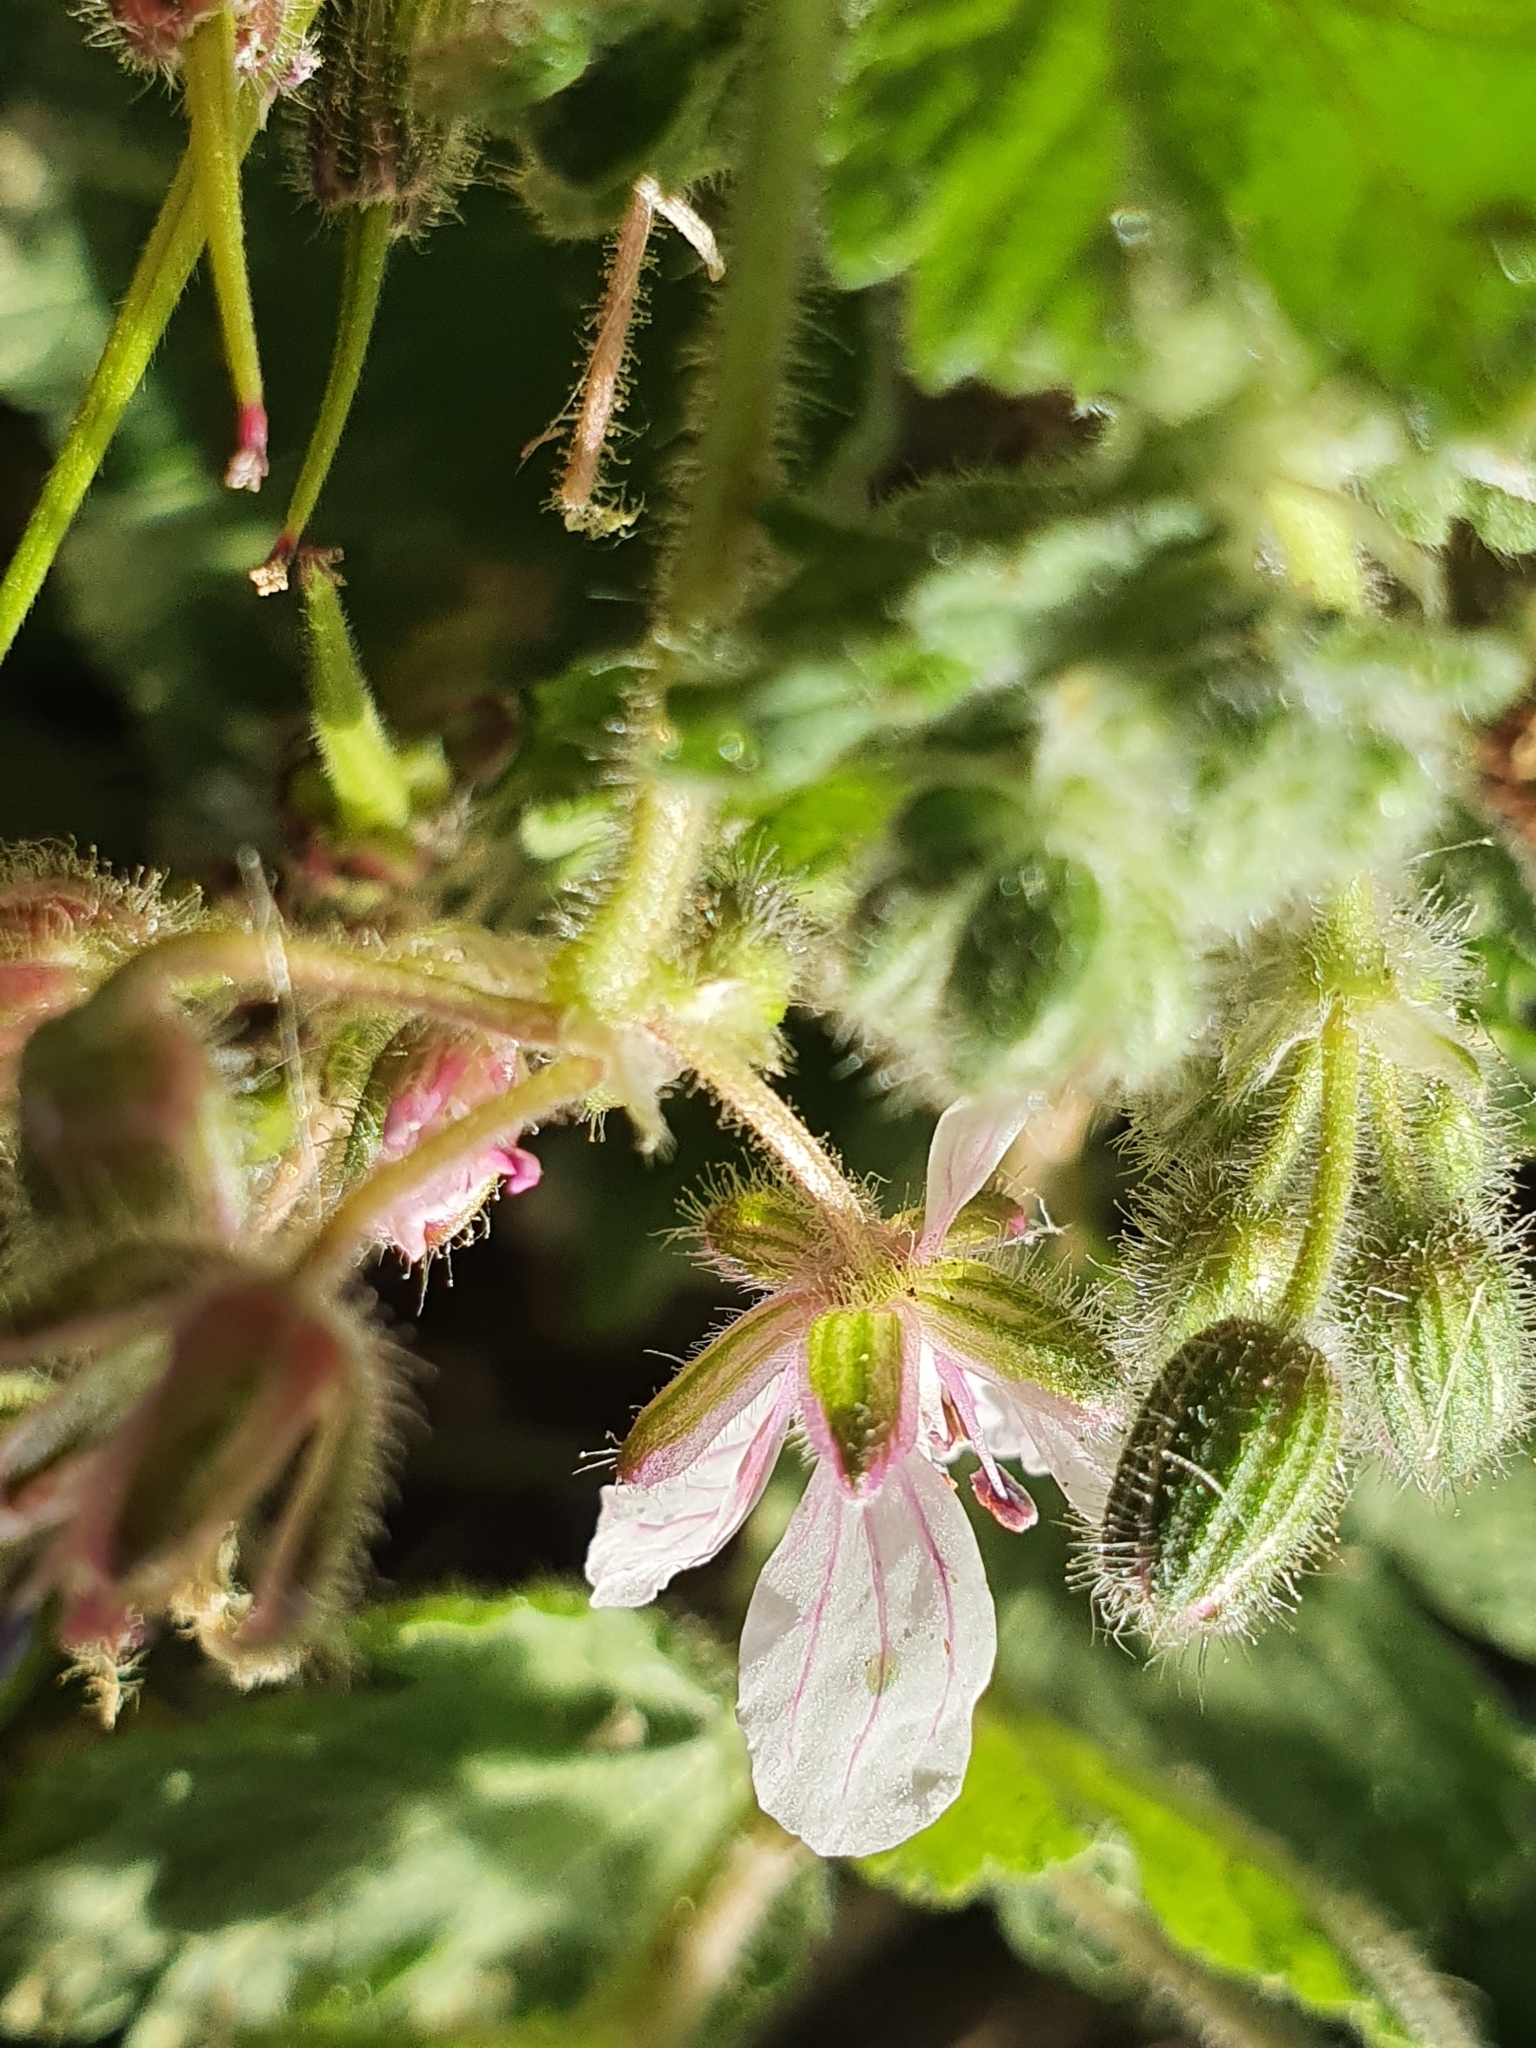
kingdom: Plantae
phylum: Tracheophyta
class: Magnoliopsida
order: Geraniales
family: Geraniaceae
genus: Erodium
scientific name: Erodium trifolium
